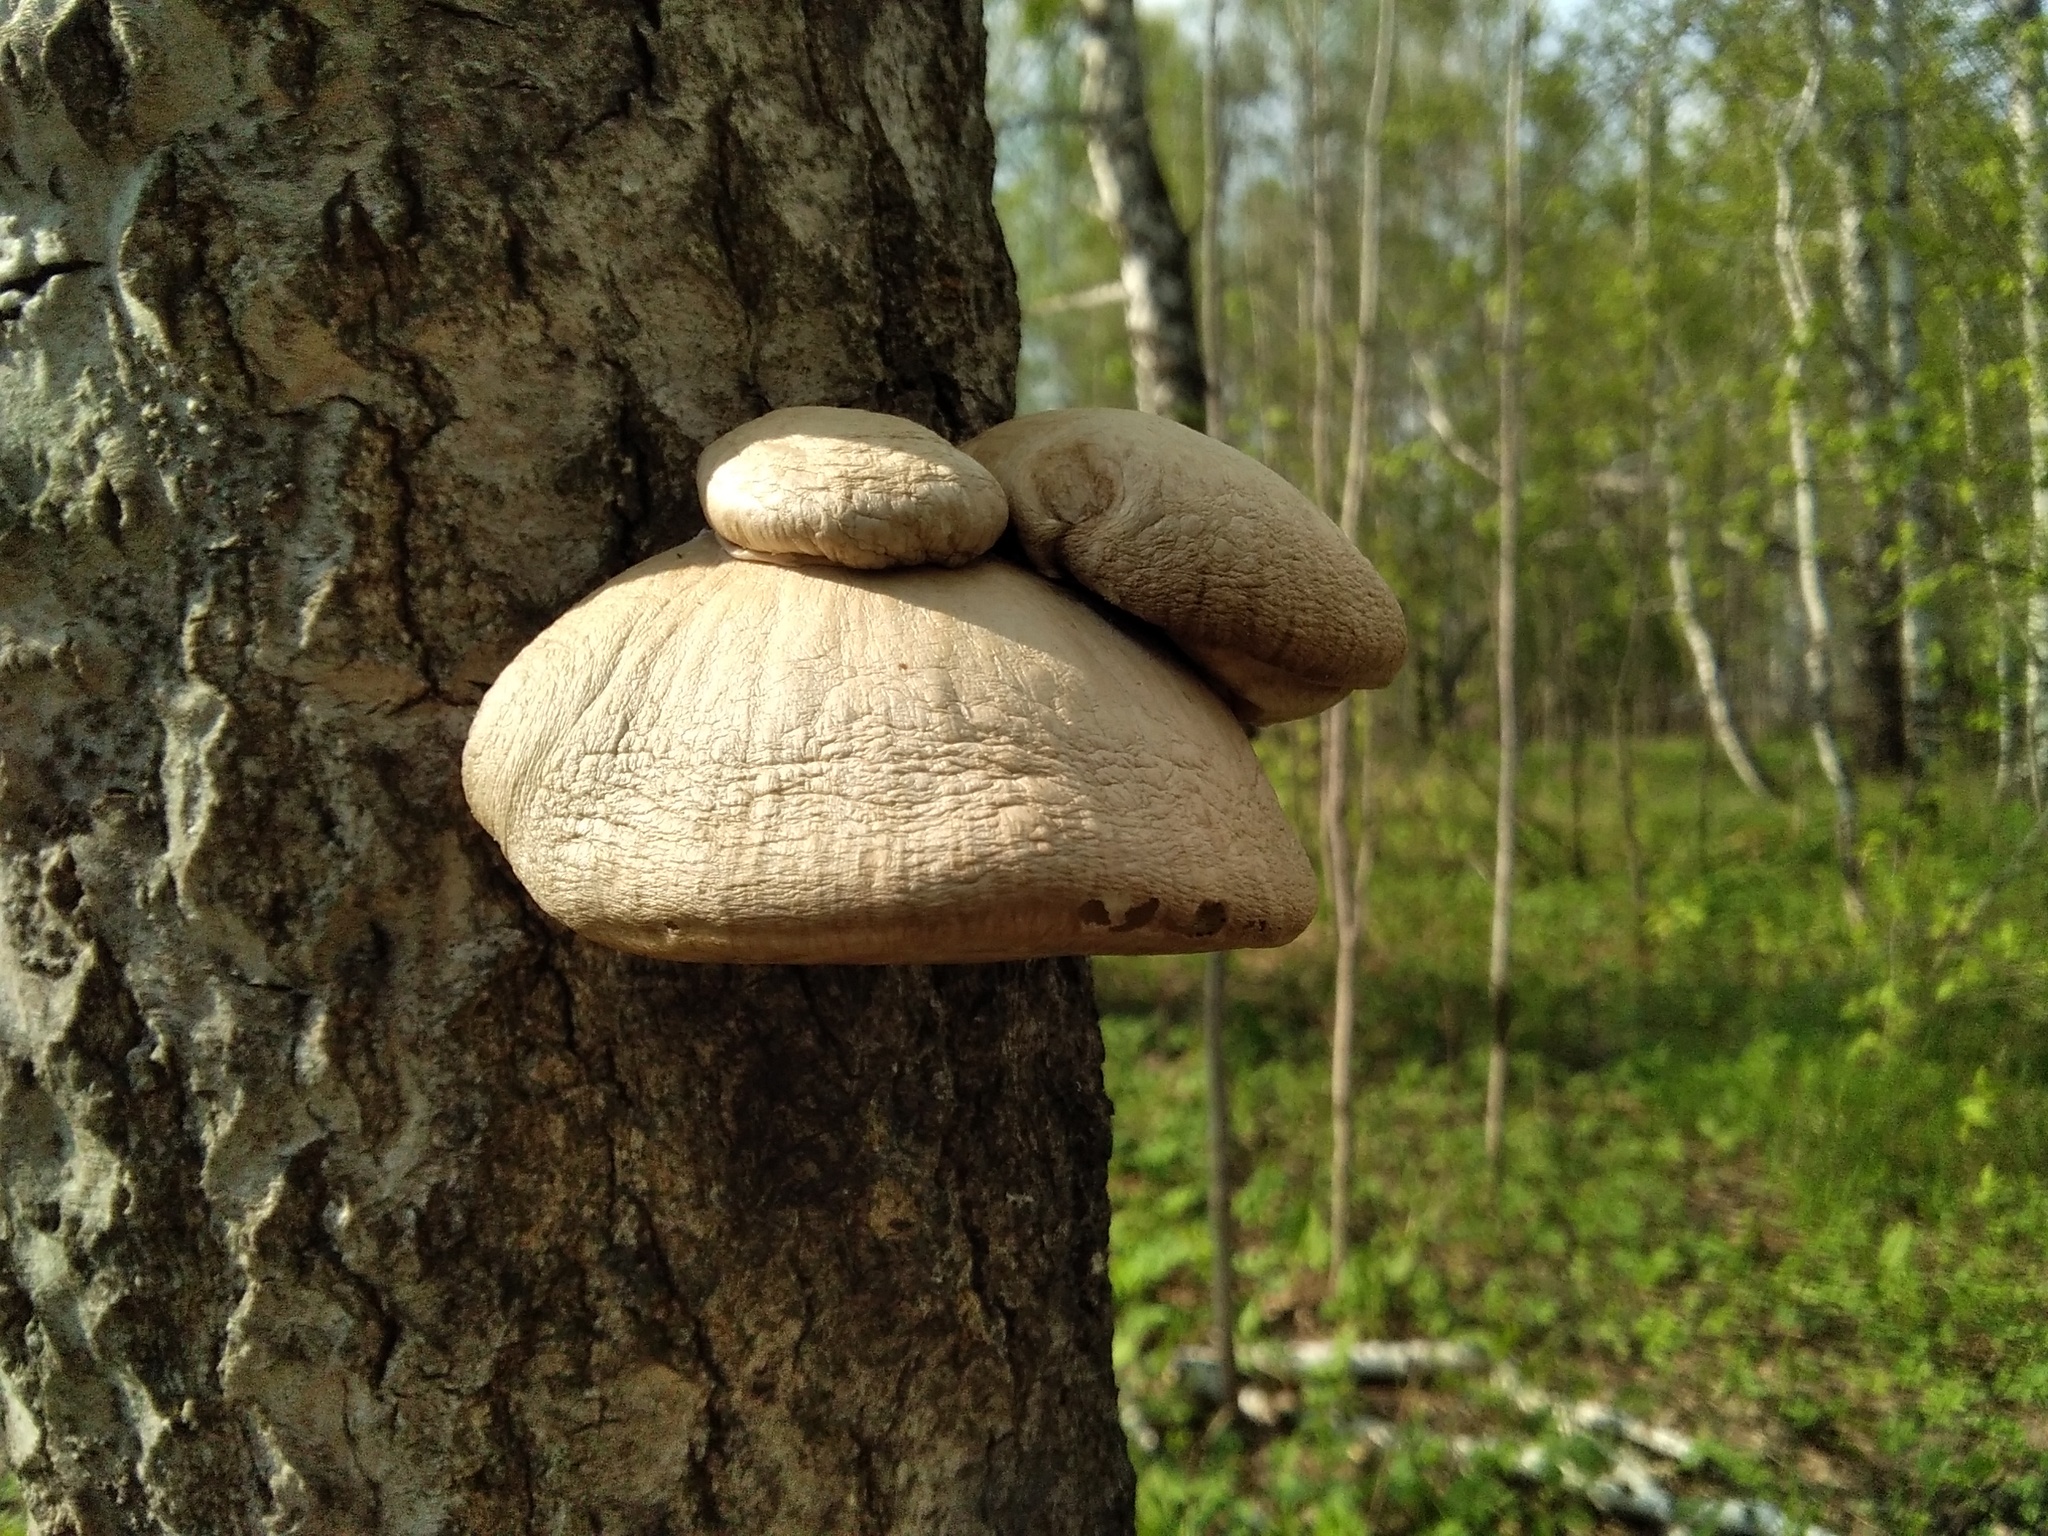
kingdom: Fungi
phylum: Basidiomycota
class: Agaricomycetes
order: Agaricales
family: Pleurotaceae
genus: Pleurotus
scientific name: Pleurotus calyptratus
